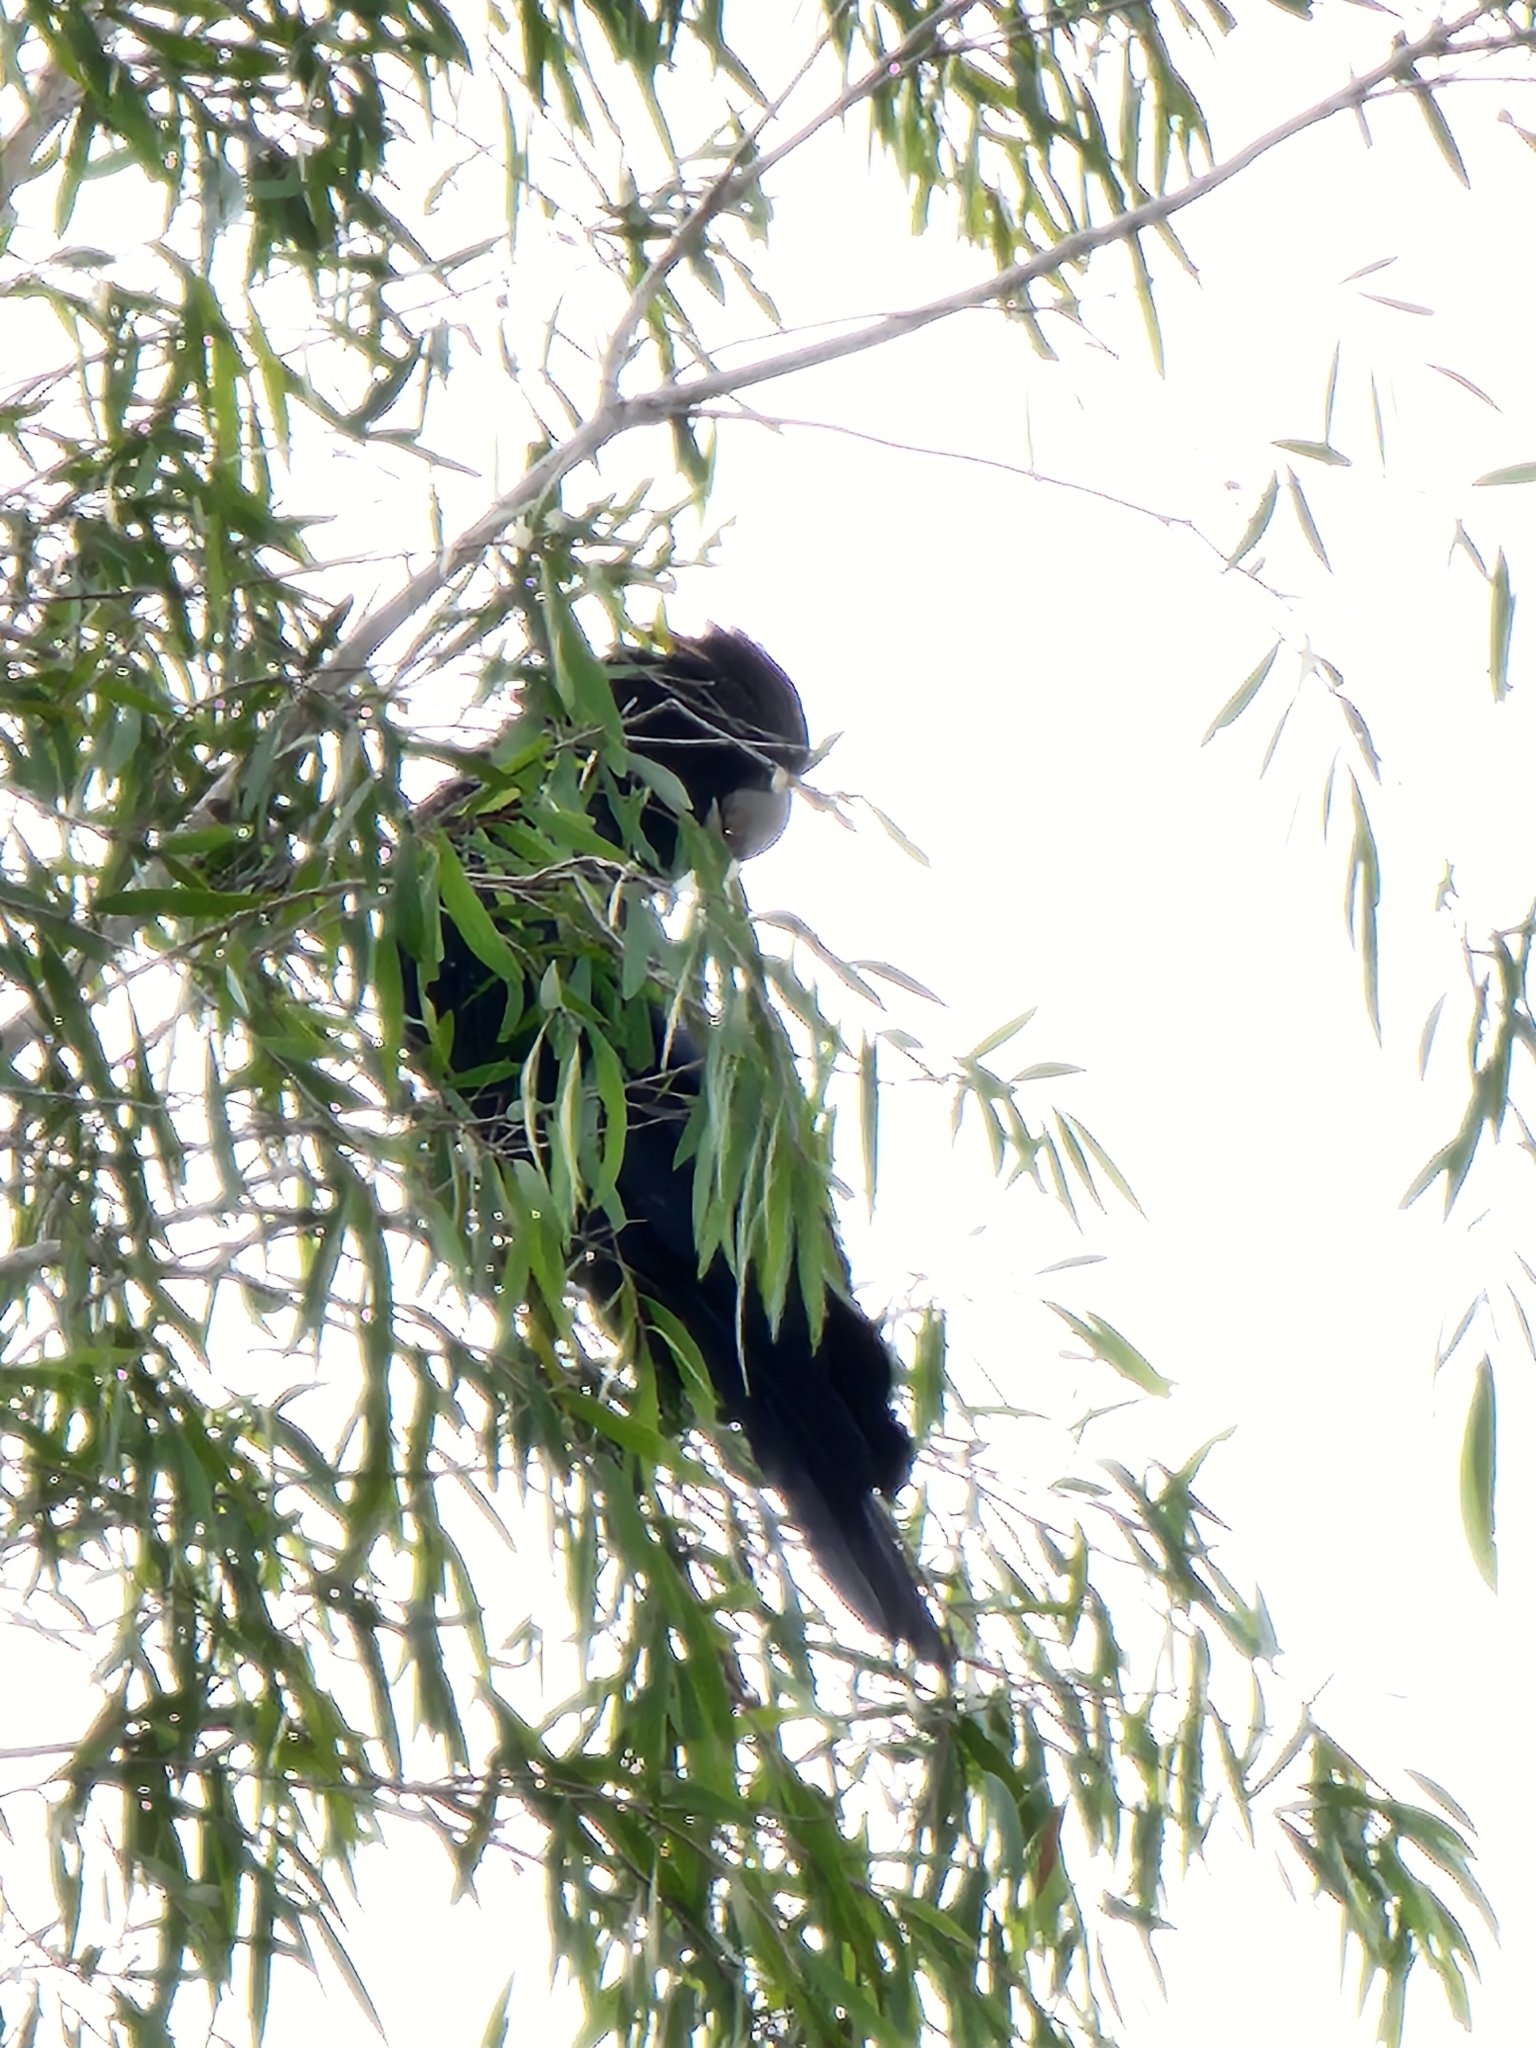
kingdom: Animalia
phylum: Chordata
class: Aves
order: Psittaciformes
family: Psittacidae
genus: Calyptorhynchus
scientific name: Calyptorhynchus banksii
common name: Red-tailed black cockatoo
